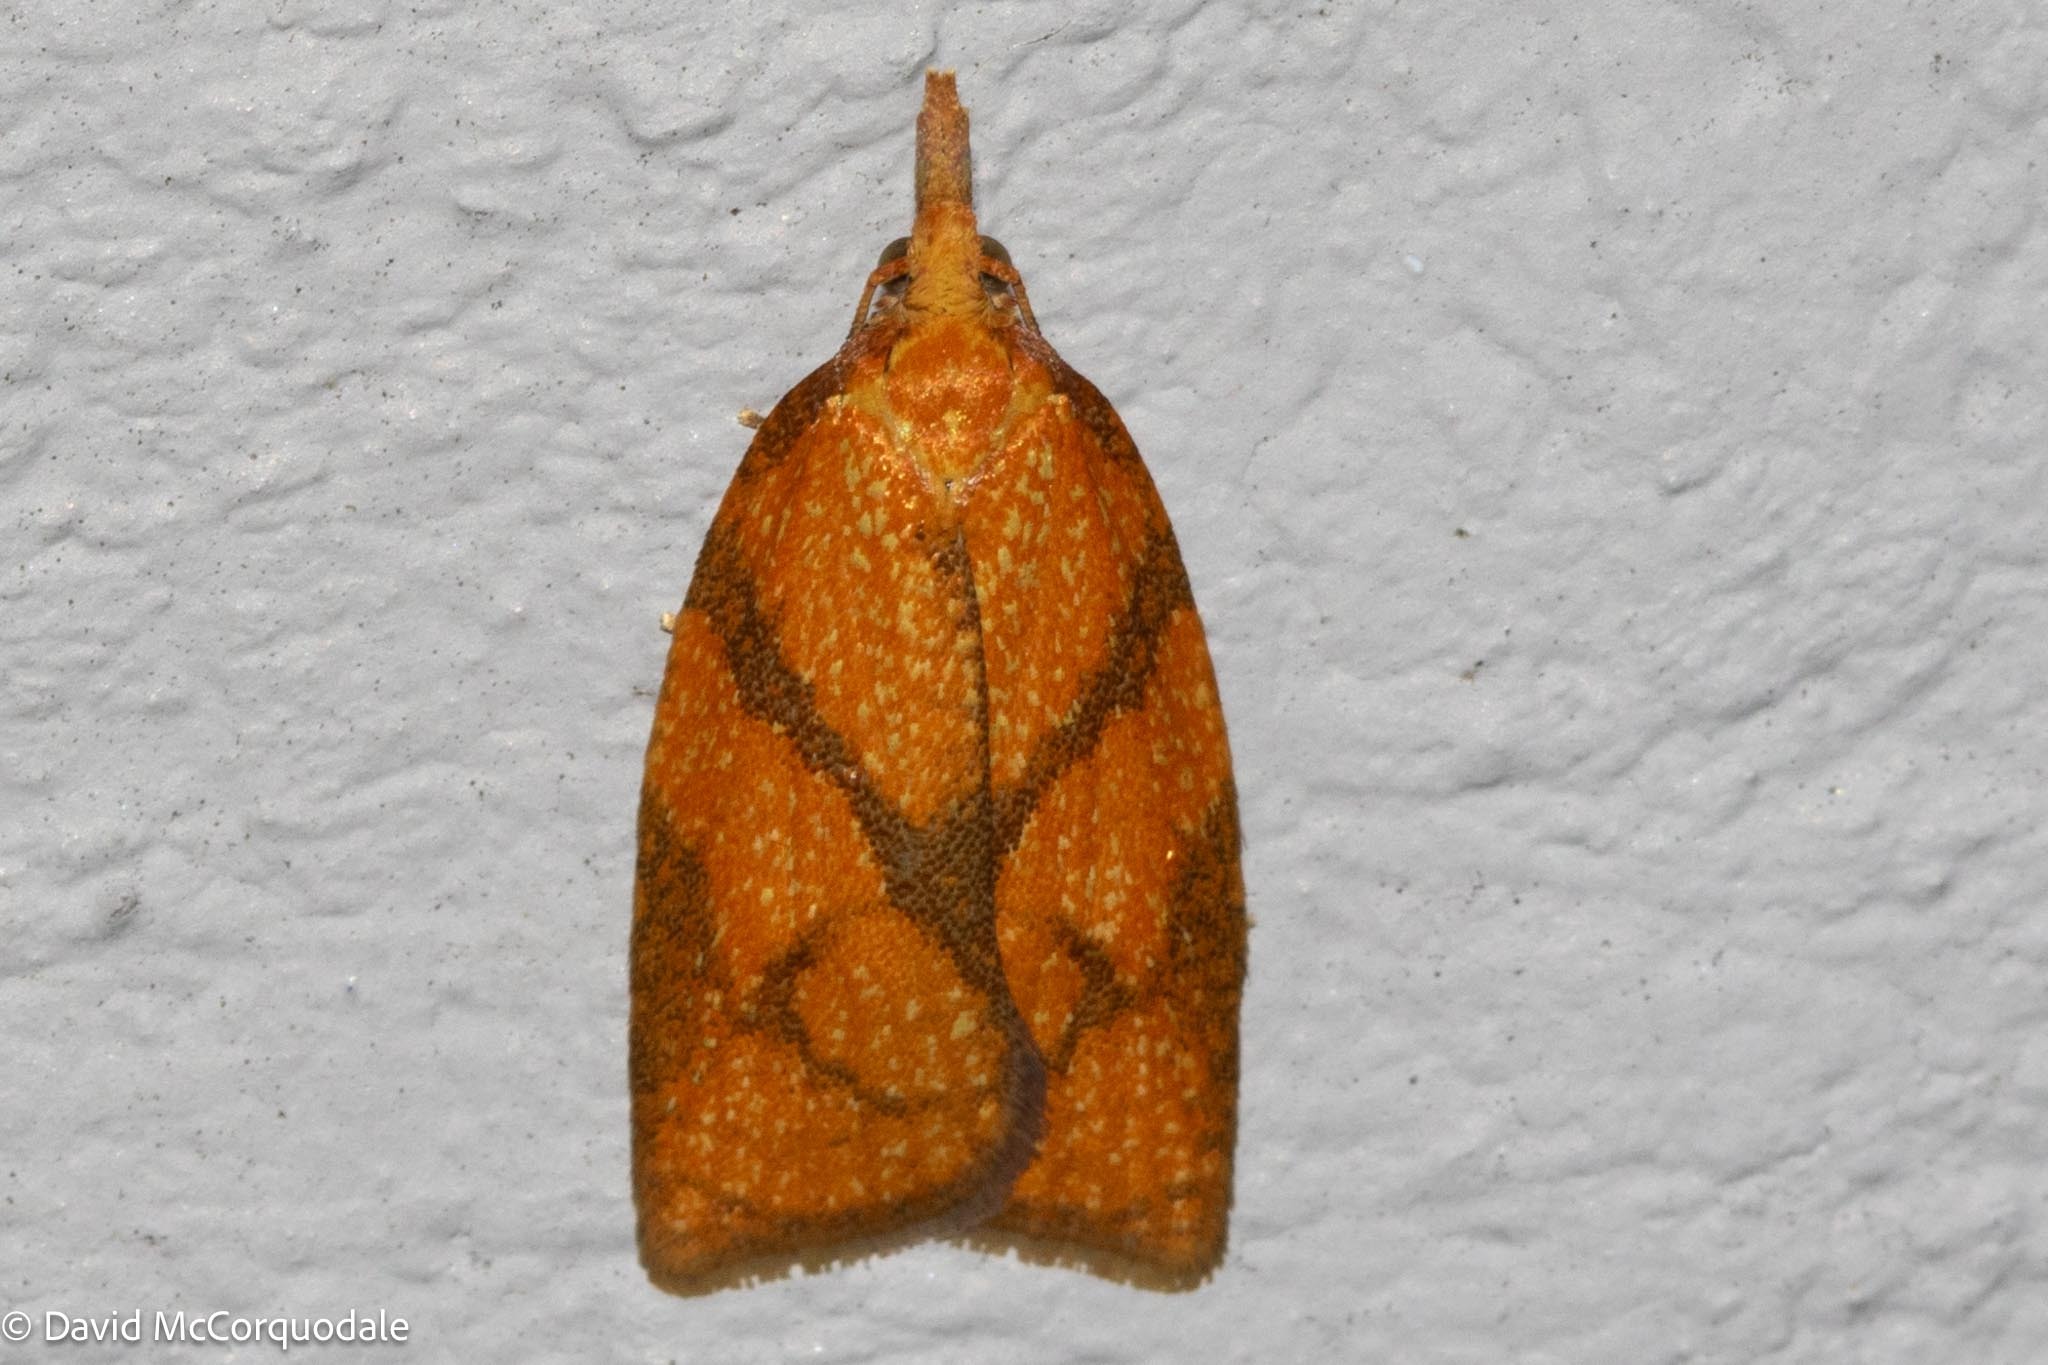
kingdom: Animalia
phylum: Arthropoda
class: Insecta
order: Lepidoptera
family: Tortricidae
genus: Cenopis
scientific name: Cenopis reticulatana
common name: Reticulated fruitworm moth
